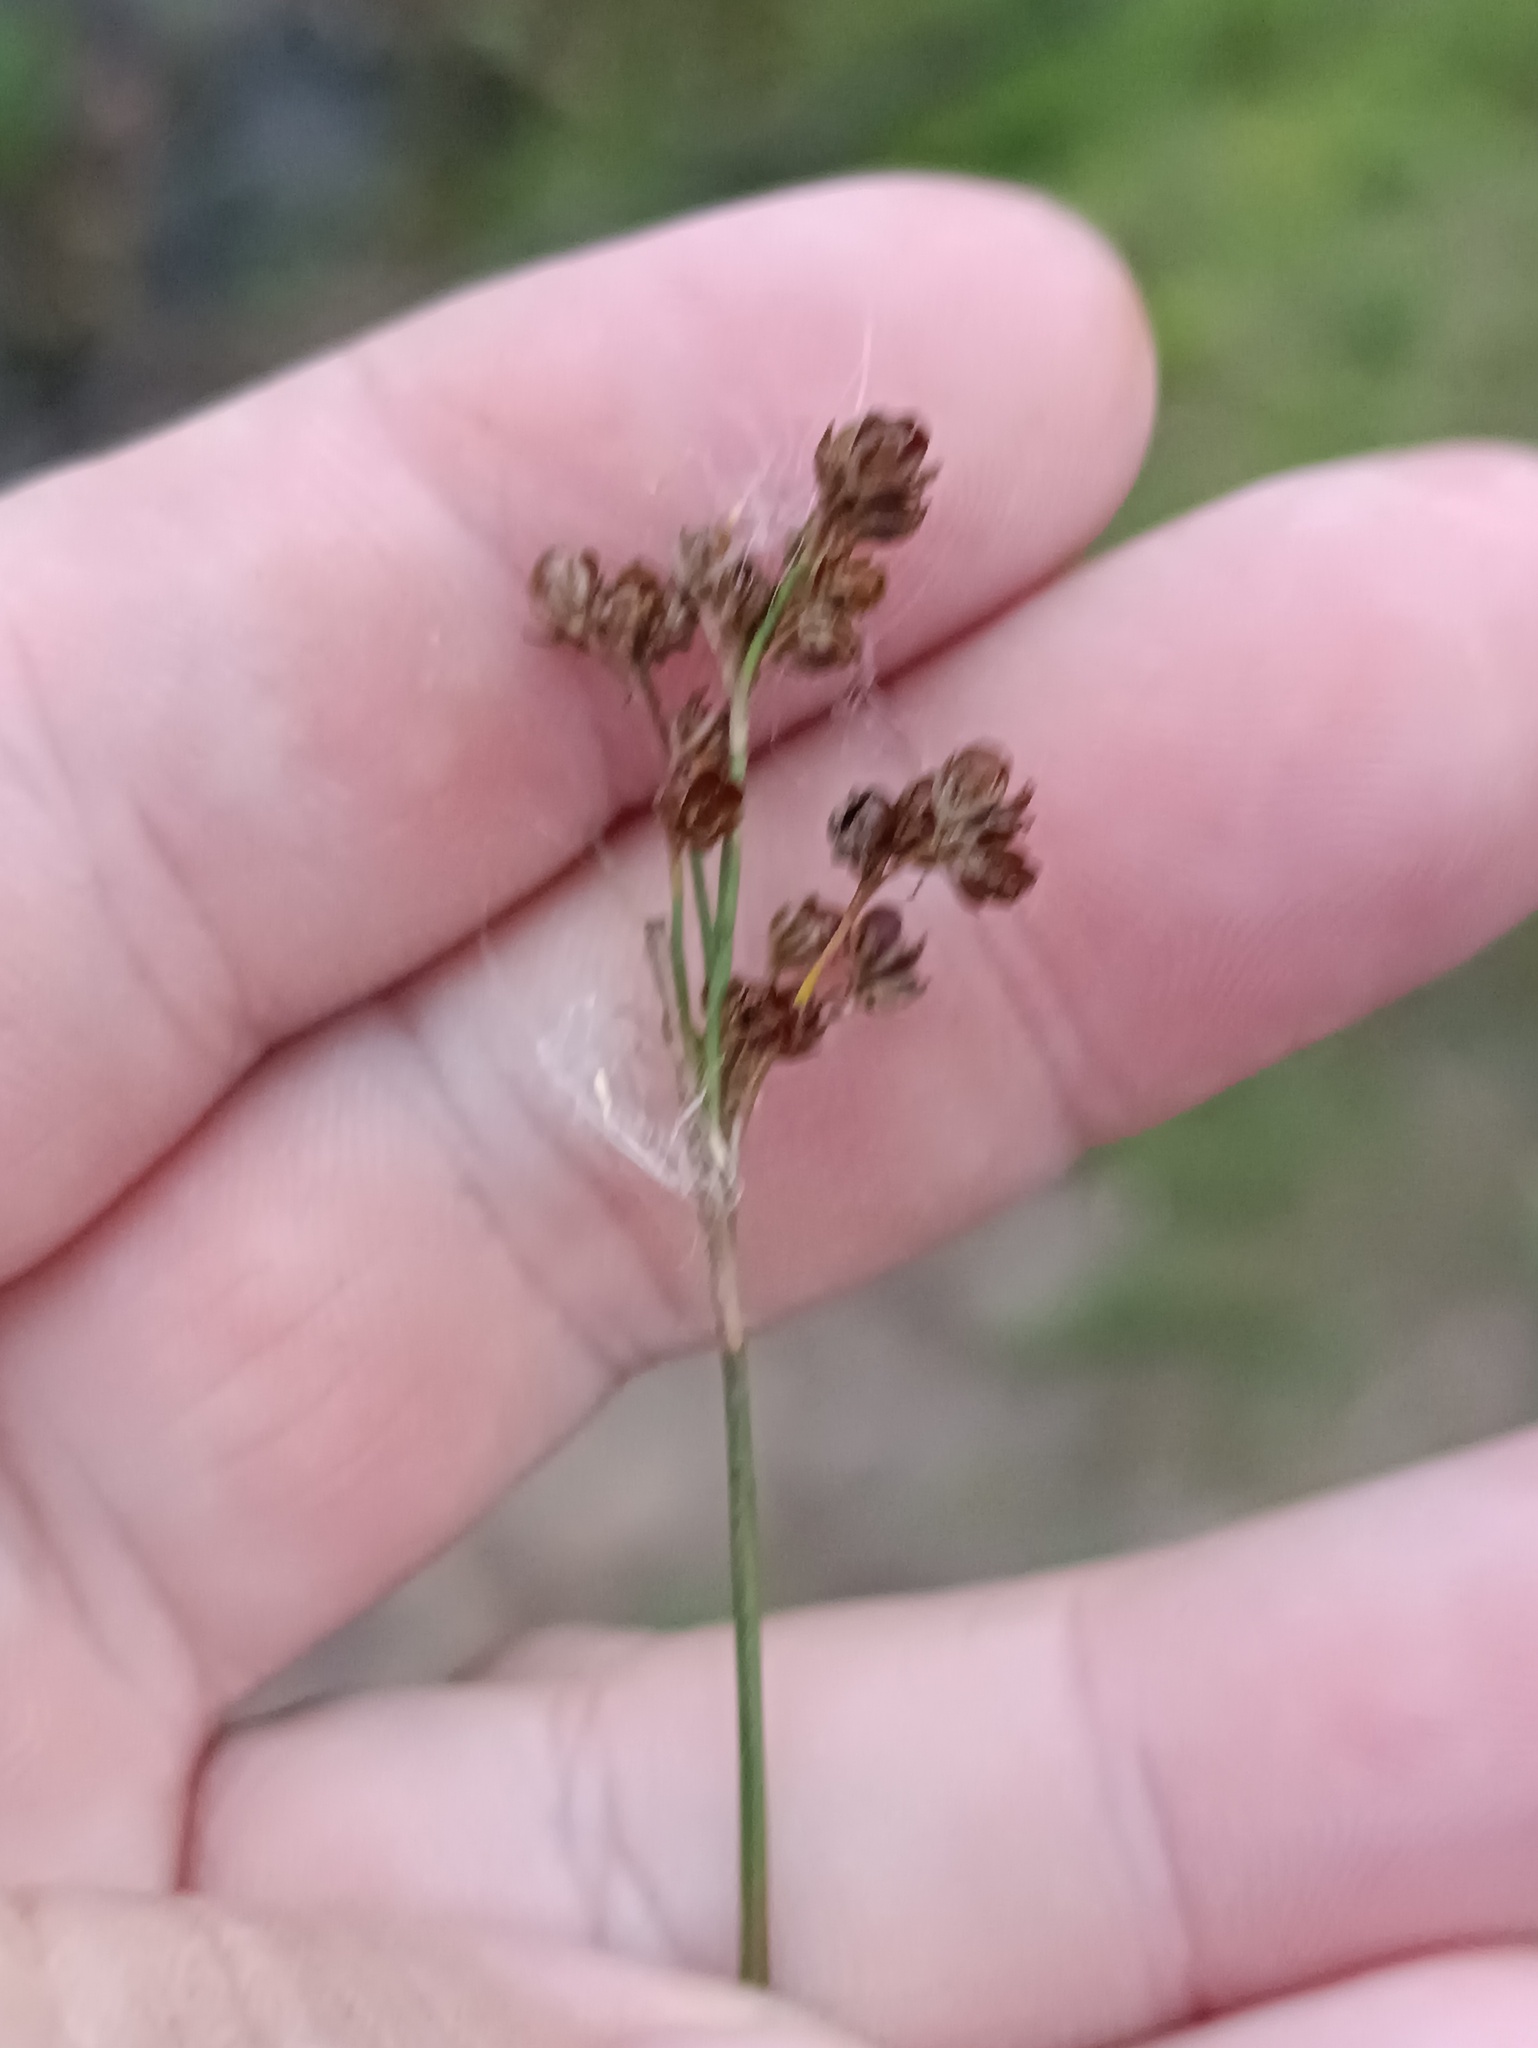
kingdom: Plantae
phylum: Tracheophyta
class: Liliopsida
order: Poales
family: Juncaceae
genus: Juncus
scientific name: Juncus compressus
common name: Round-fruited rush
